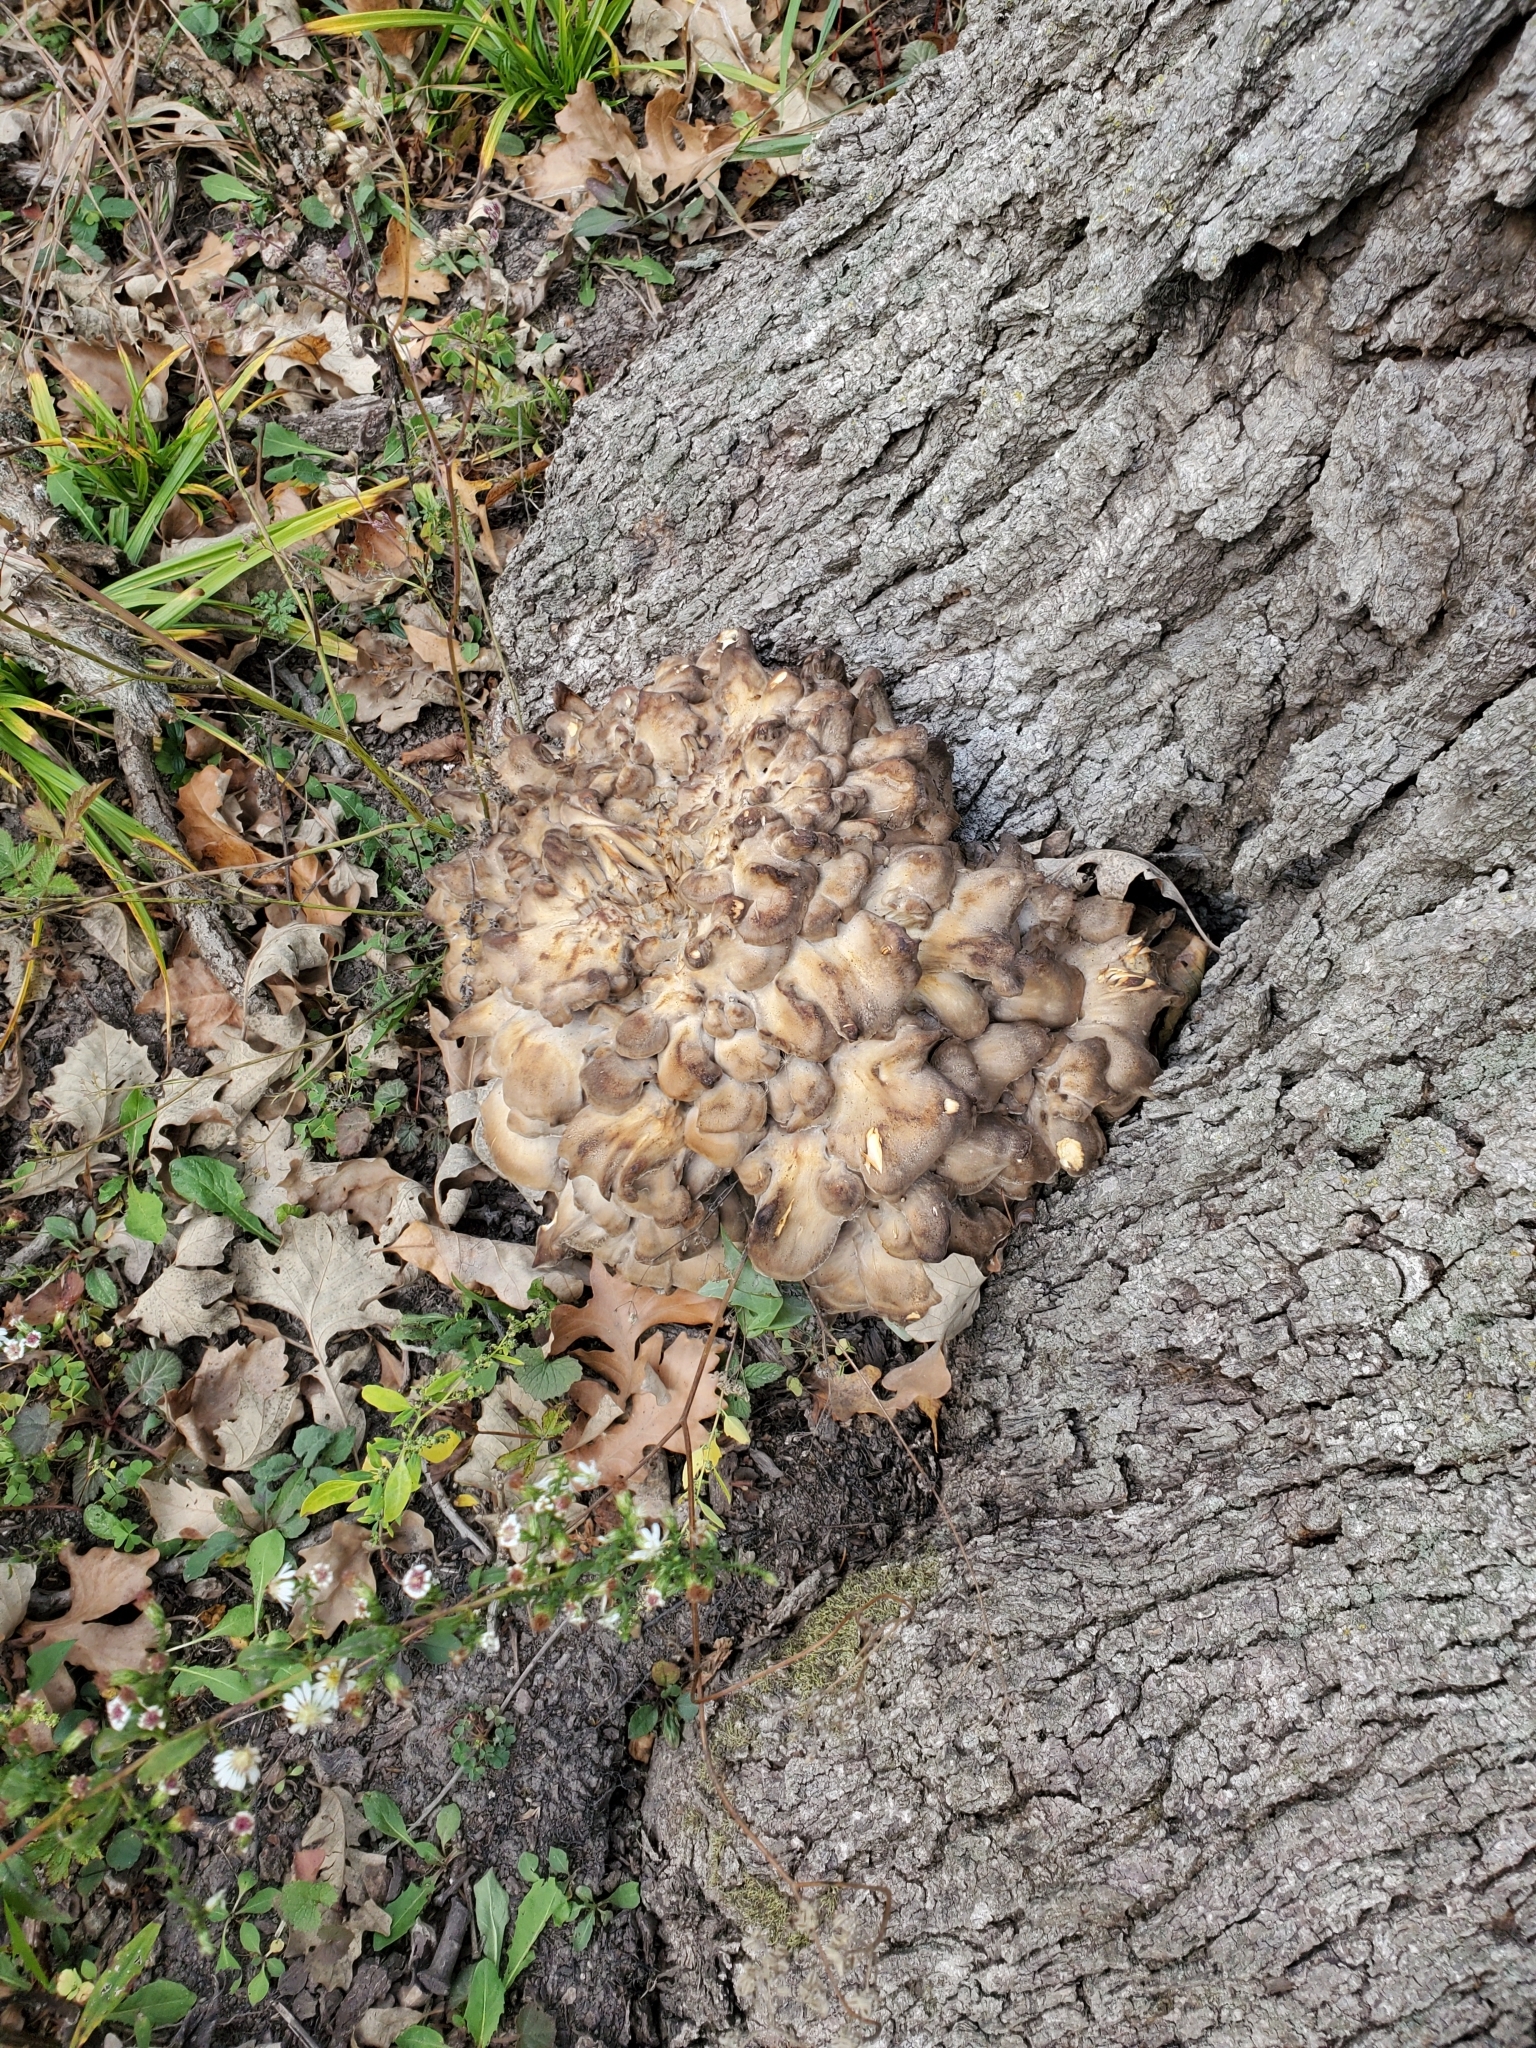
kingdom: Fungi
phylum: Basidiomycota
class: Agaricomycetes
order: Polyporales
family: Grifolaceae
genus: Grifola
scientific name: Grifola frondosa
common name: Hen of the woods
